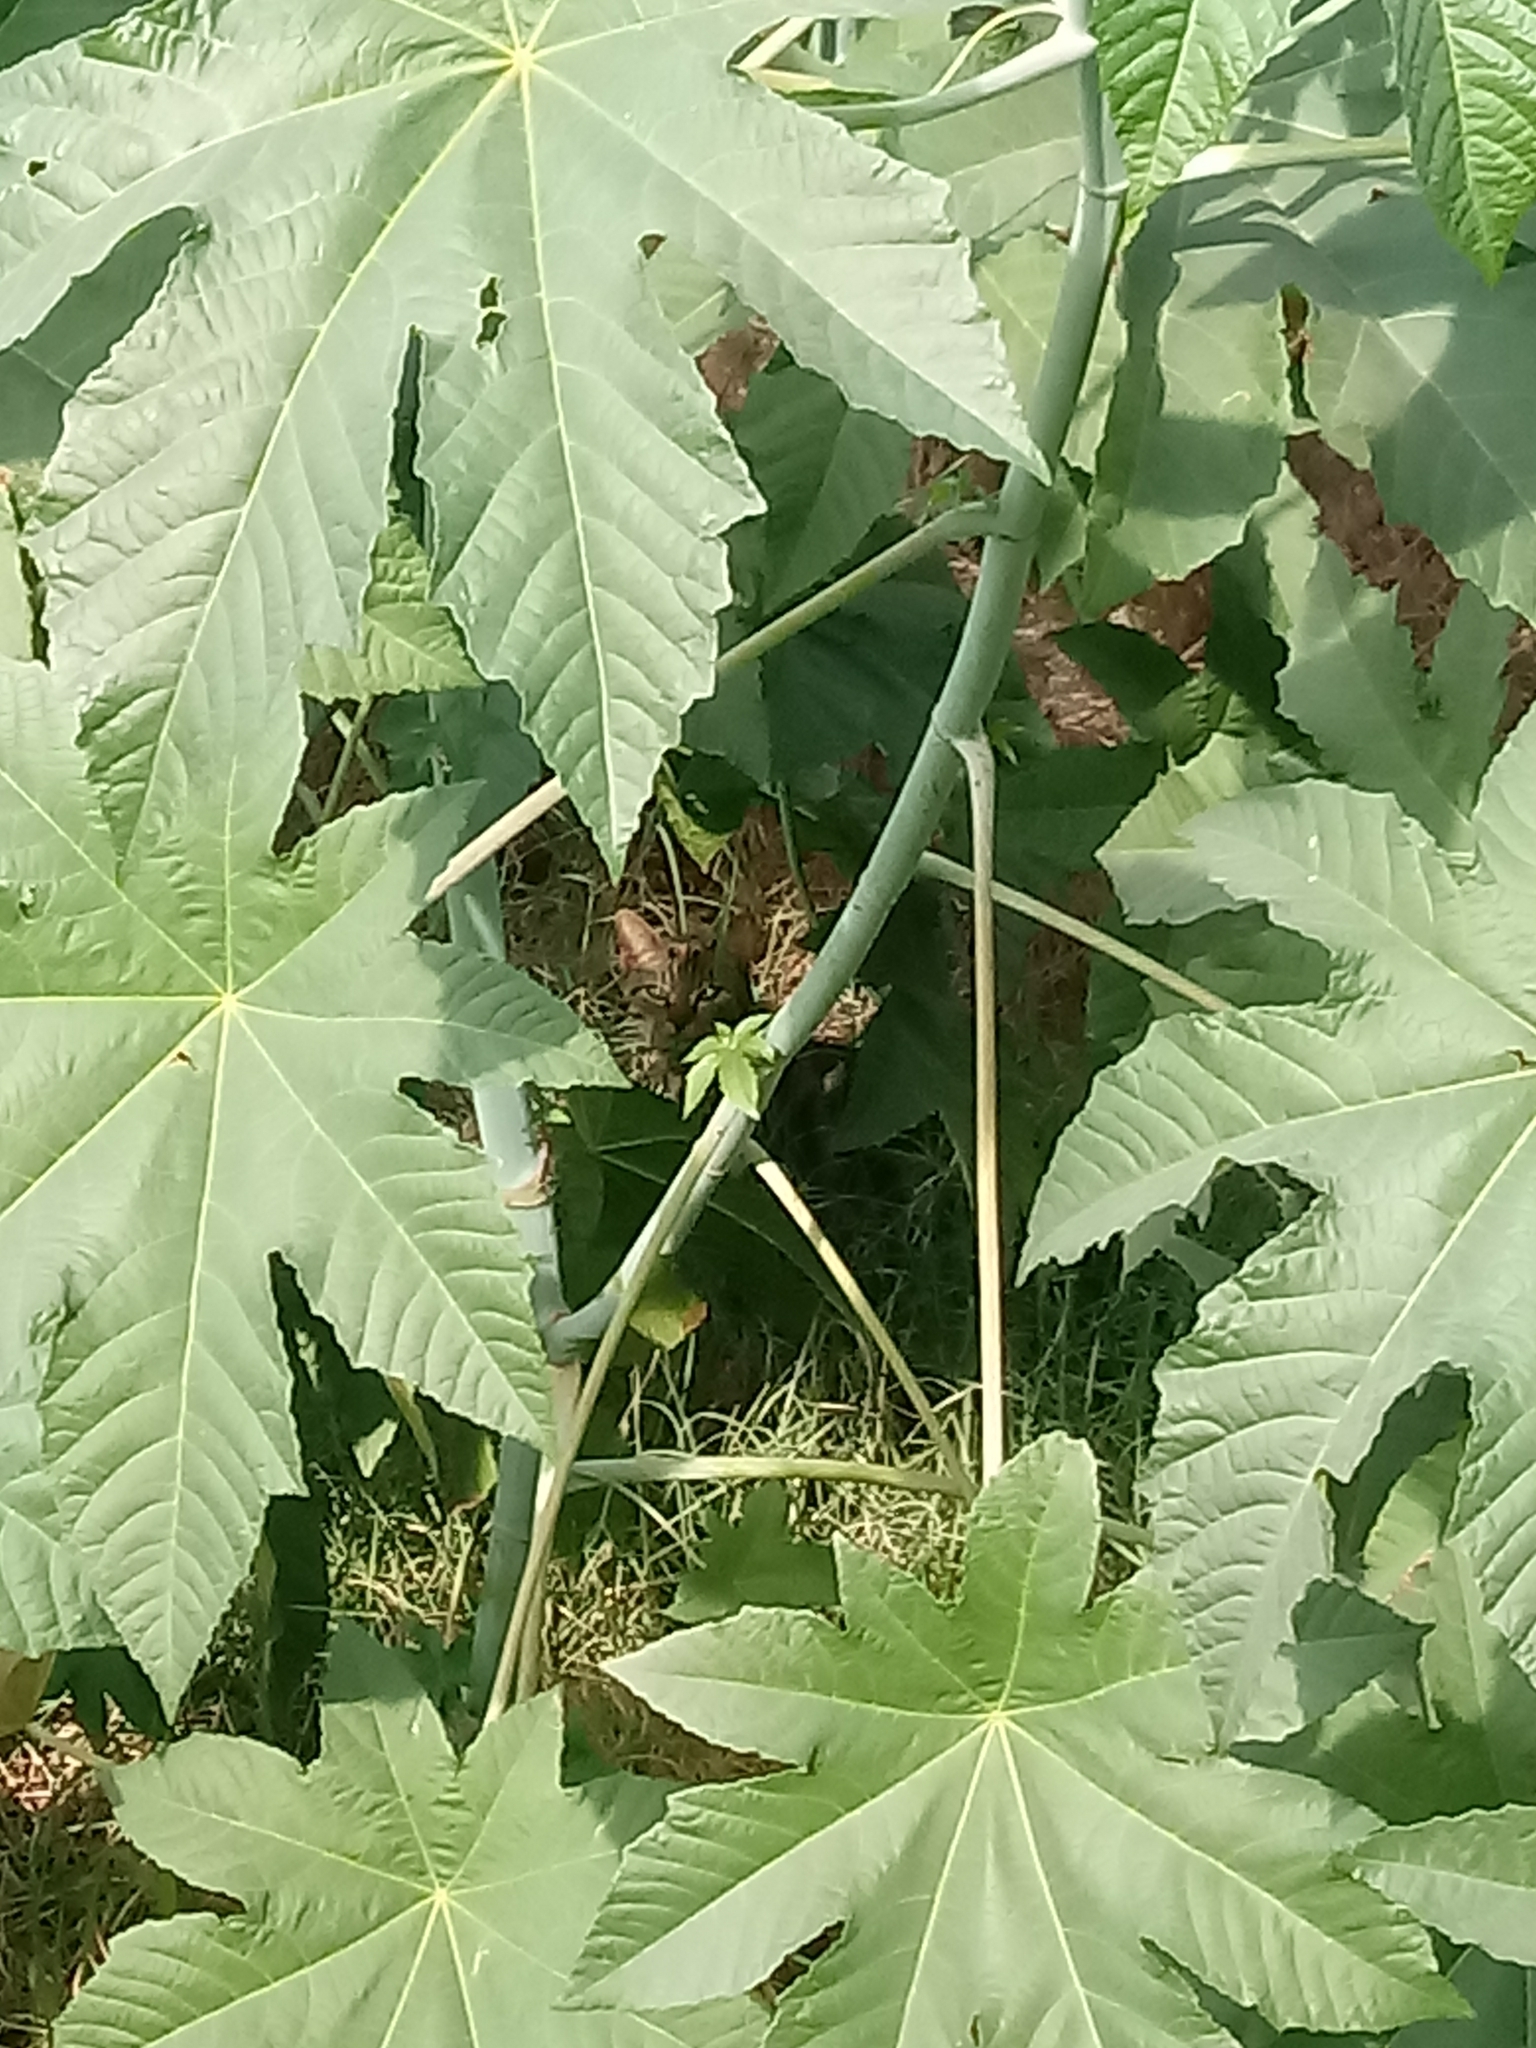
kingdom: Animalia
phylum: Chordata
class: Mammalia
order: Carnivora
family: Felidae
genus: Felis
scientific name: Felis catus
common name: Domestic cat
